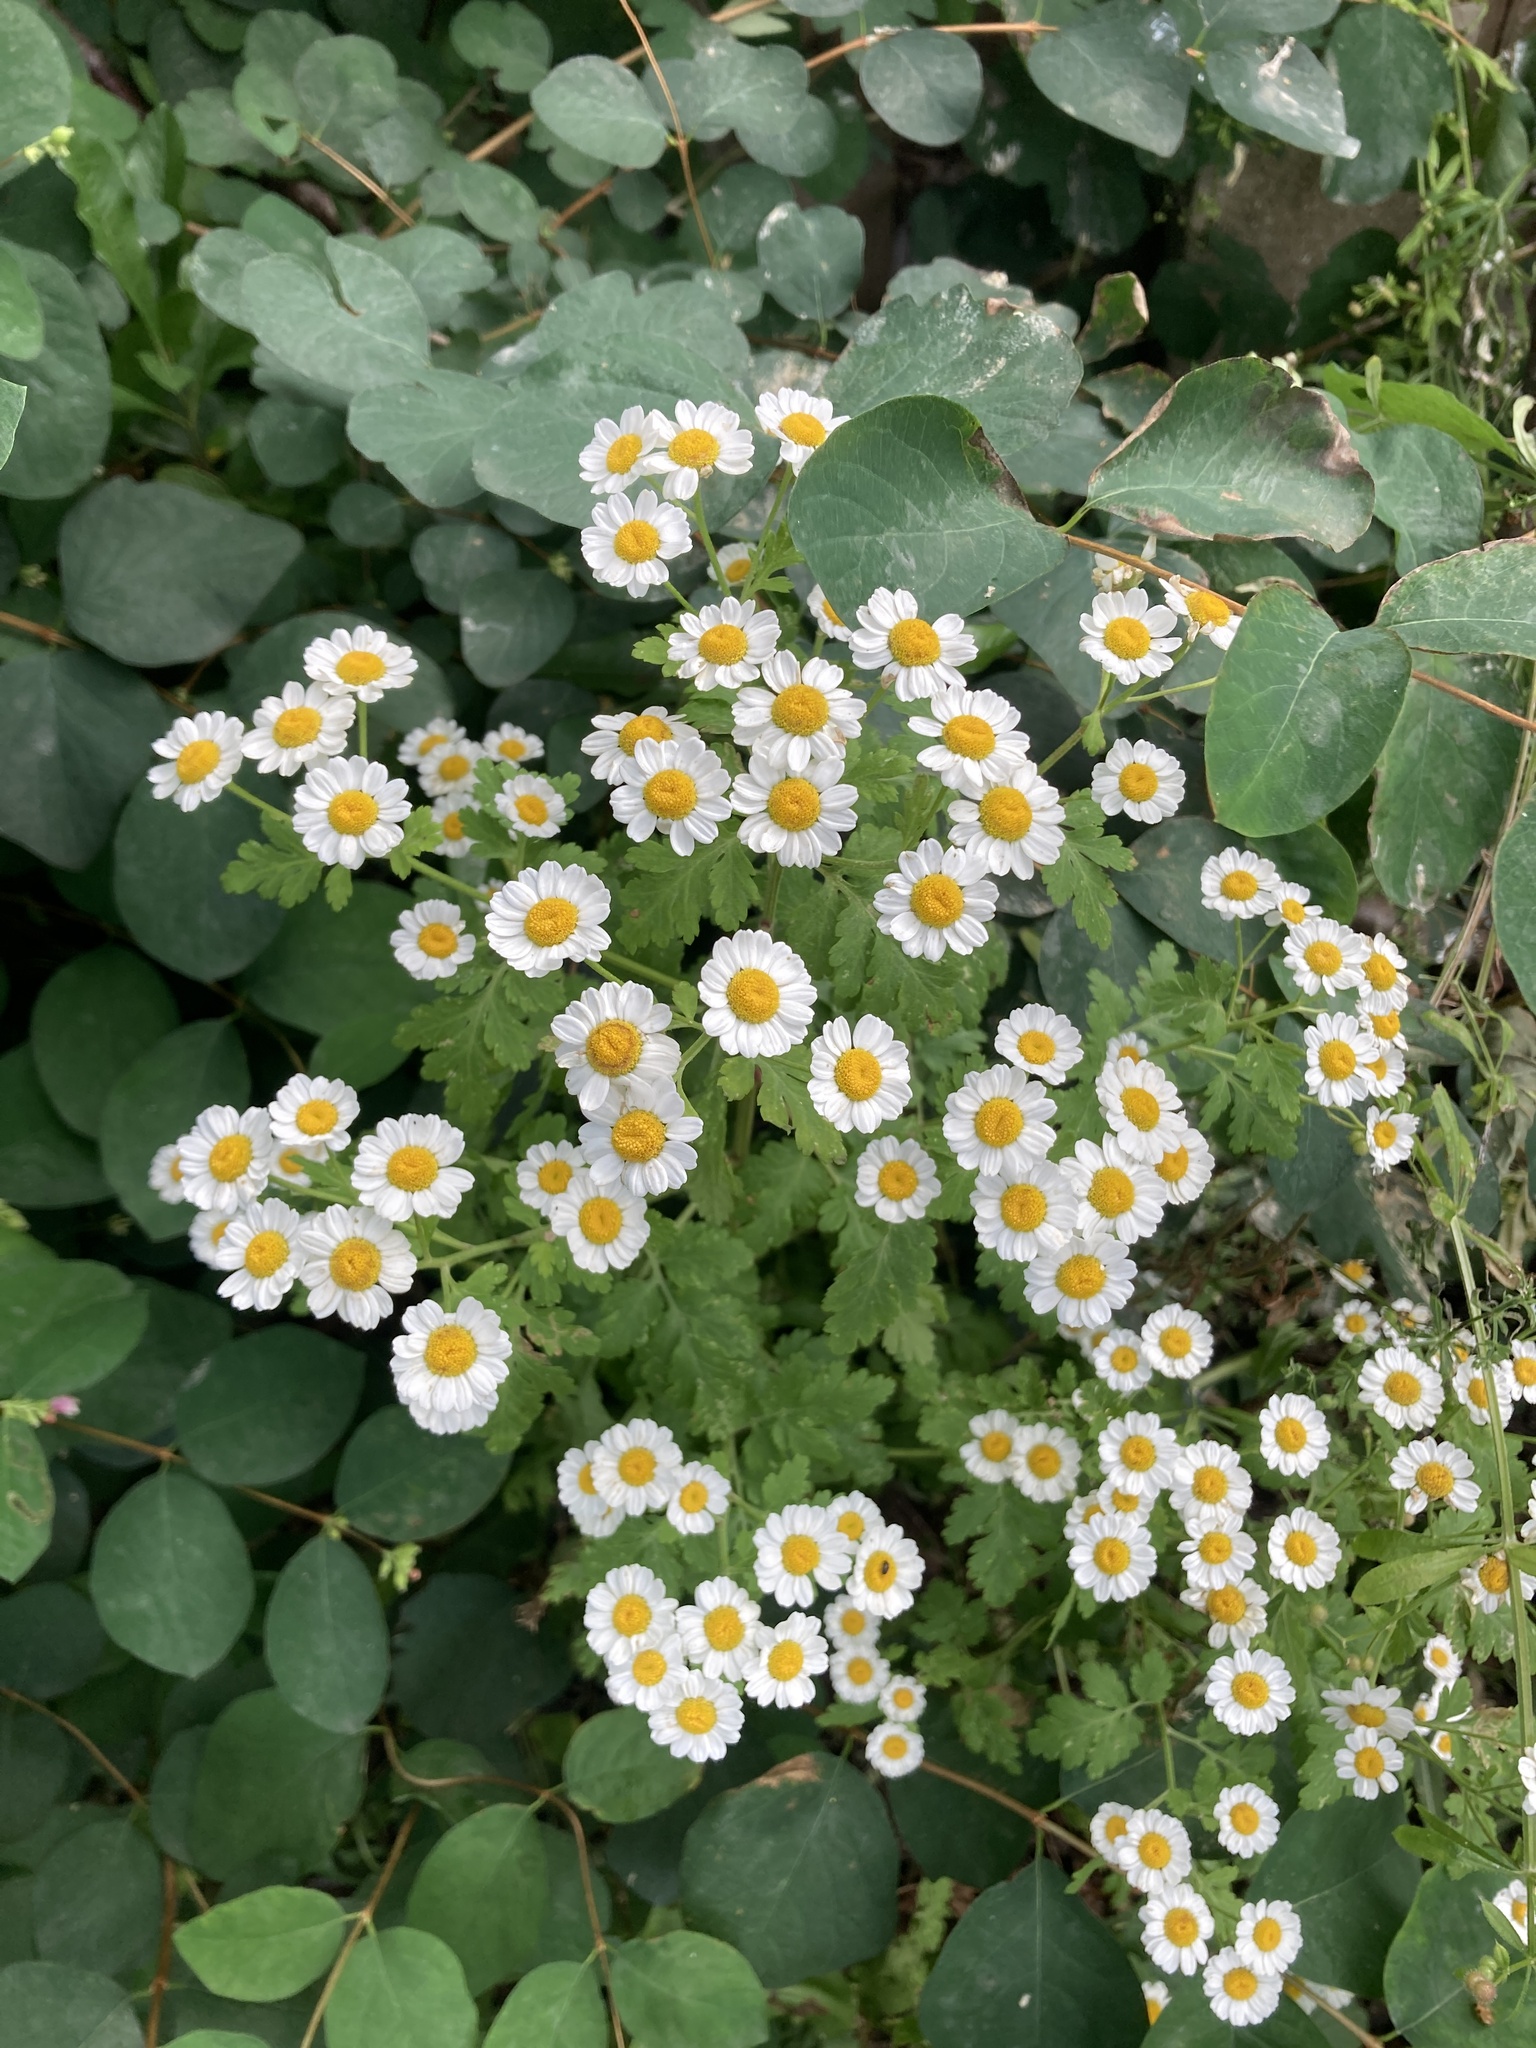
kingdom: Plantae
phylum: Tracheophyta
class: Magnoliopsida
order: Asterales
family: Asteraceae
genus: Tanacetum
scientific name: Tanacetum parthenium
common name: Feverfew
